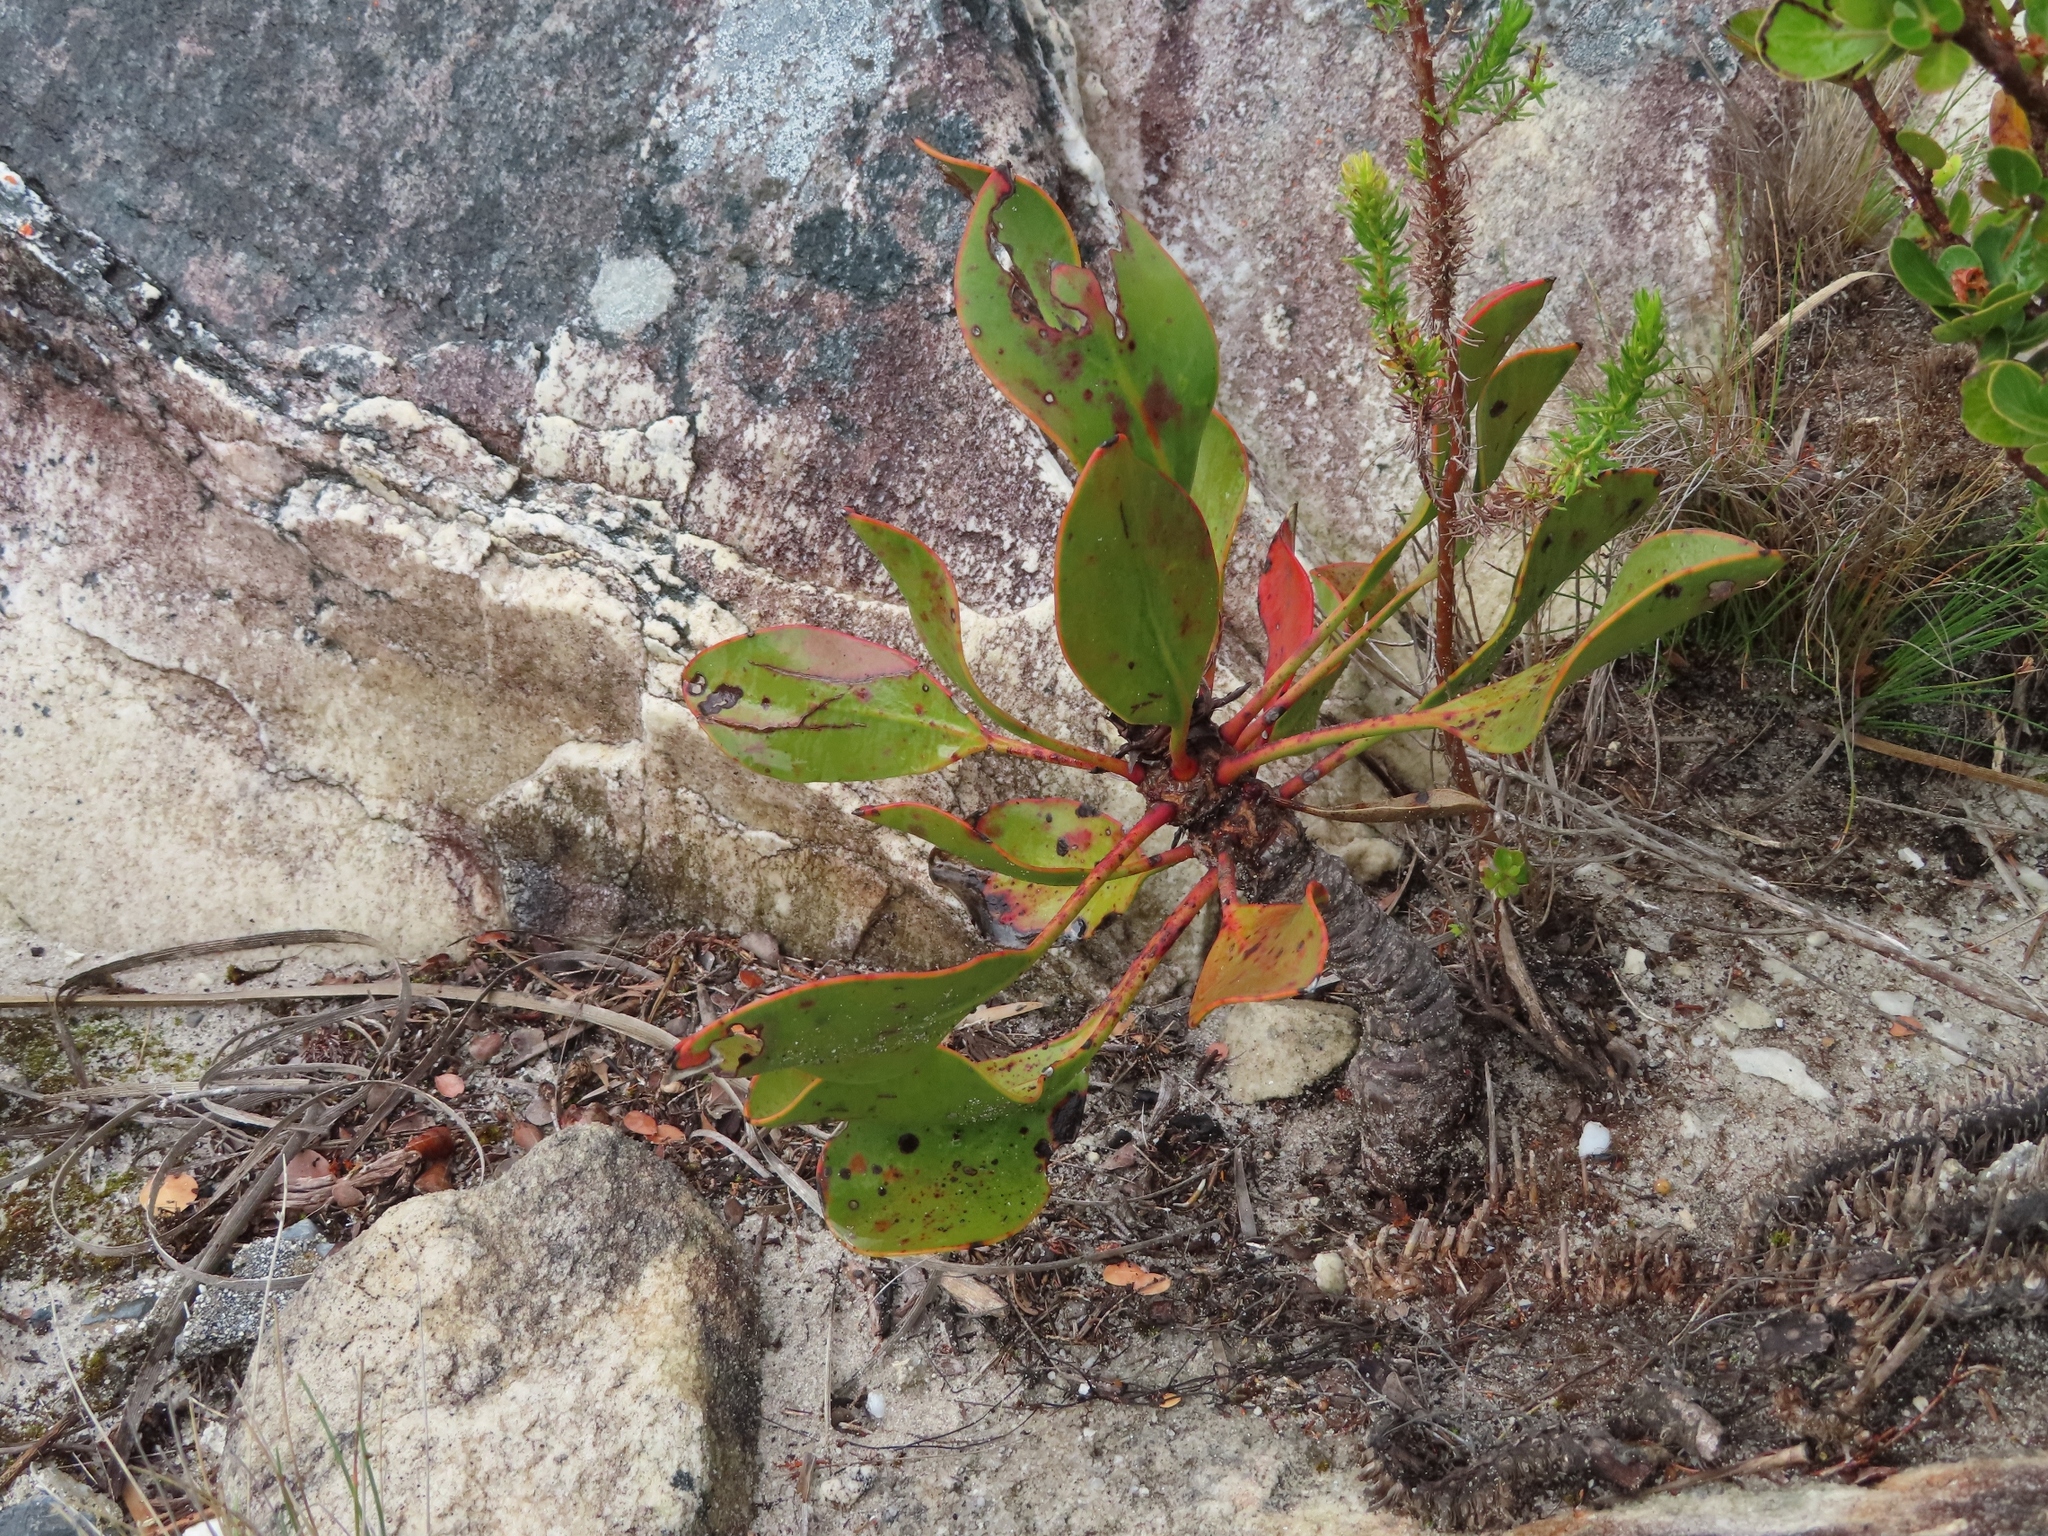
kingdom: Plantae
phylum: Tracheophyta
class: Magnoliopsida
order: Proteales
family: Proteaceae
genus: Protea
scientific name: Protea cynaroides
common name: King protea
